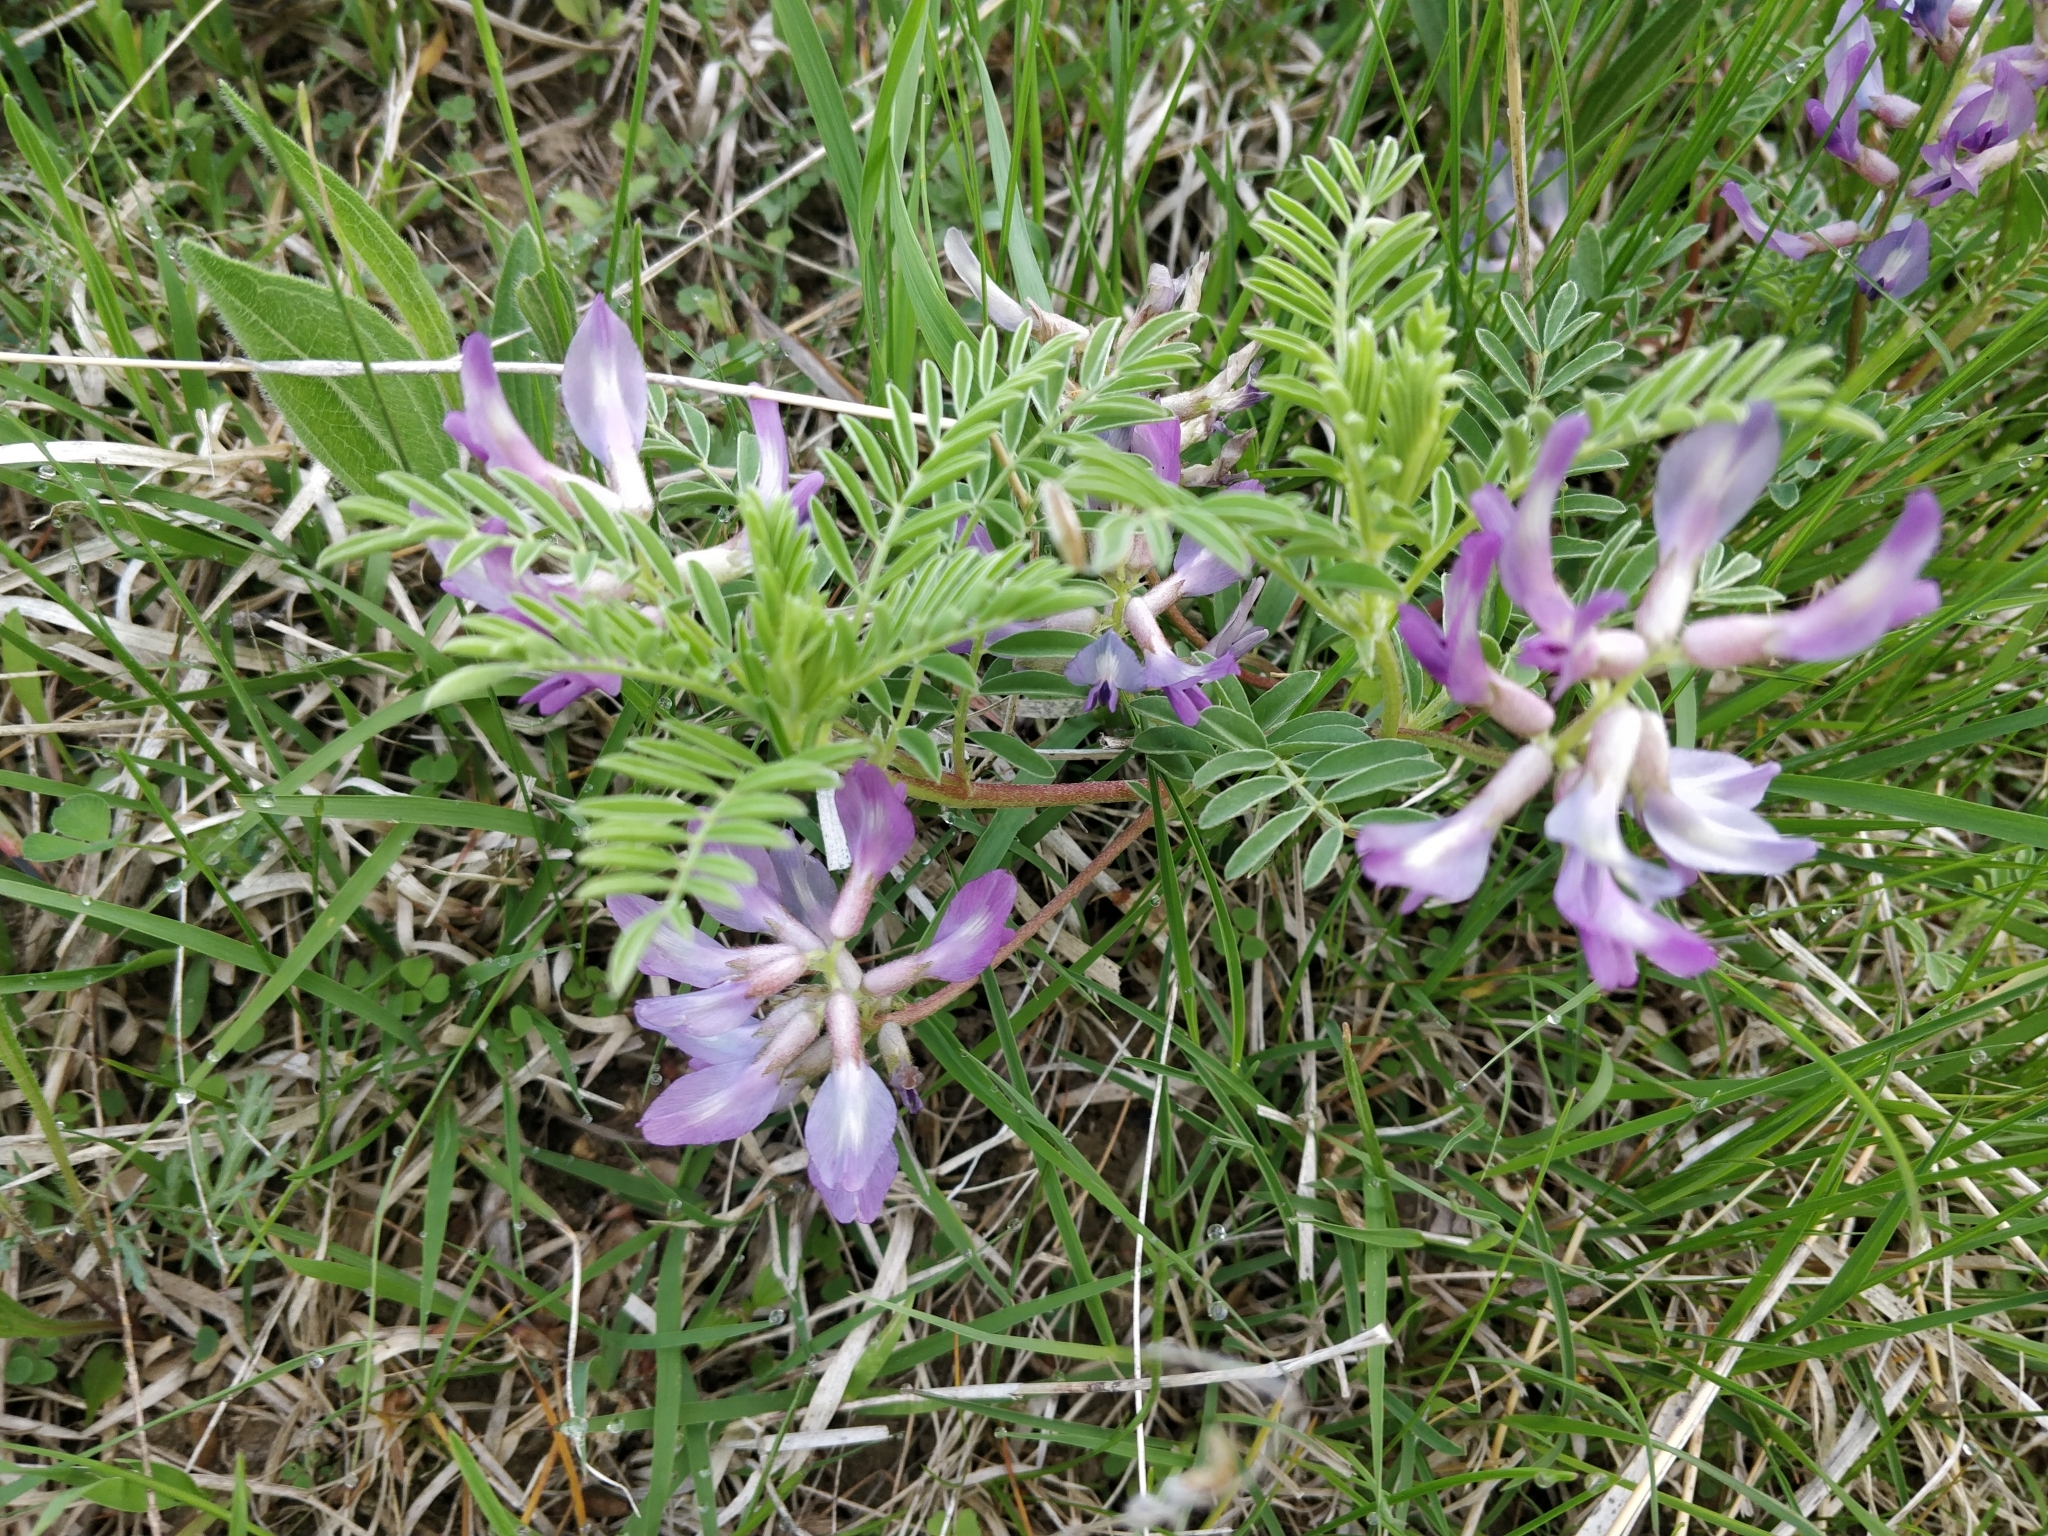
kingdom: Plantae
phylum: Tracheophyta
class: Magnoliopsida
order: Fabales
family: Fabaceae
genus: Astragalus
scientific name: Astragalus crassicarpus
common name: Ground-plum milk-vetch
